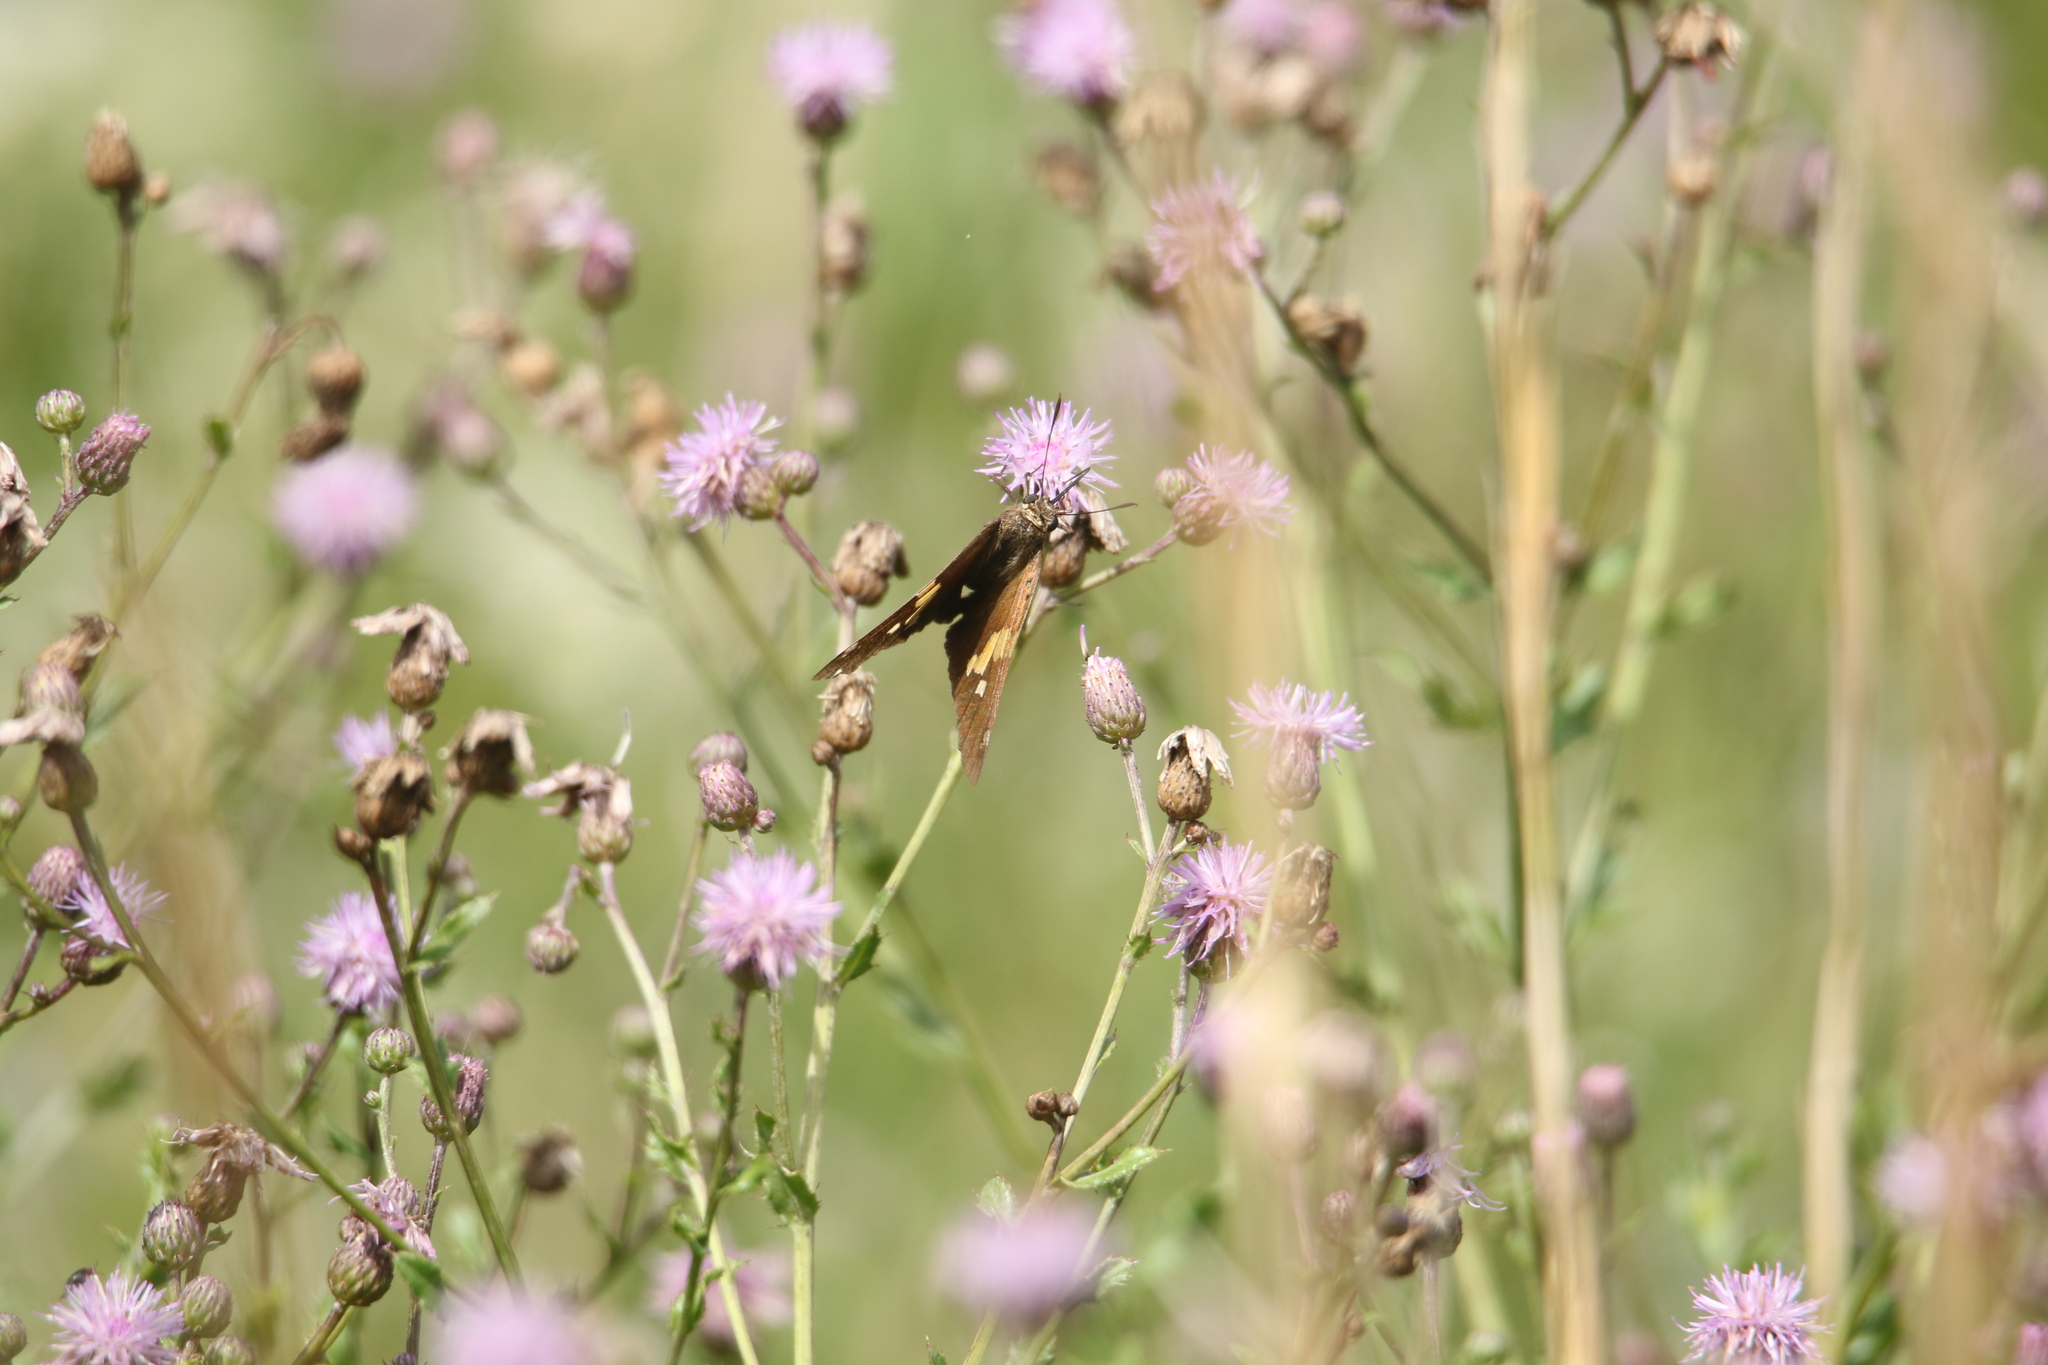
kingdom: Animalia
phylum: Arthropoda
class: Insecta
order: Lepidoptera
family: Hesperiidae
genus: Epargyreus
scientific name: Epargyreus clarus
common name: Silver-spotted skipper
